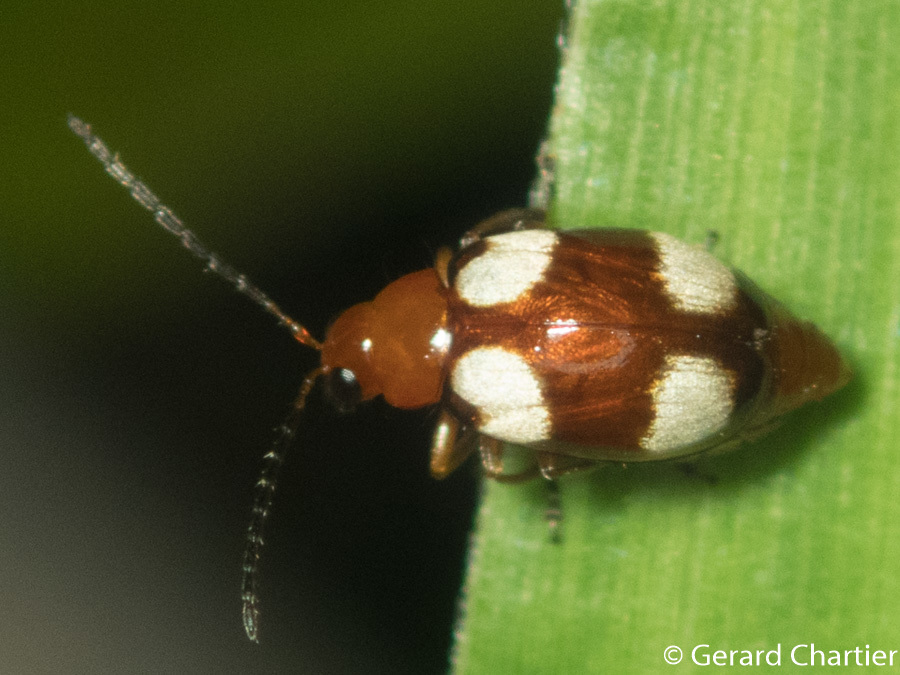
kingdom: Animalia
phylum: Arthropoda
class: Insecta
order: Coleoptera
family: Chrysomelidae
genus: Monolepta
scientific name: Monolepta signata
